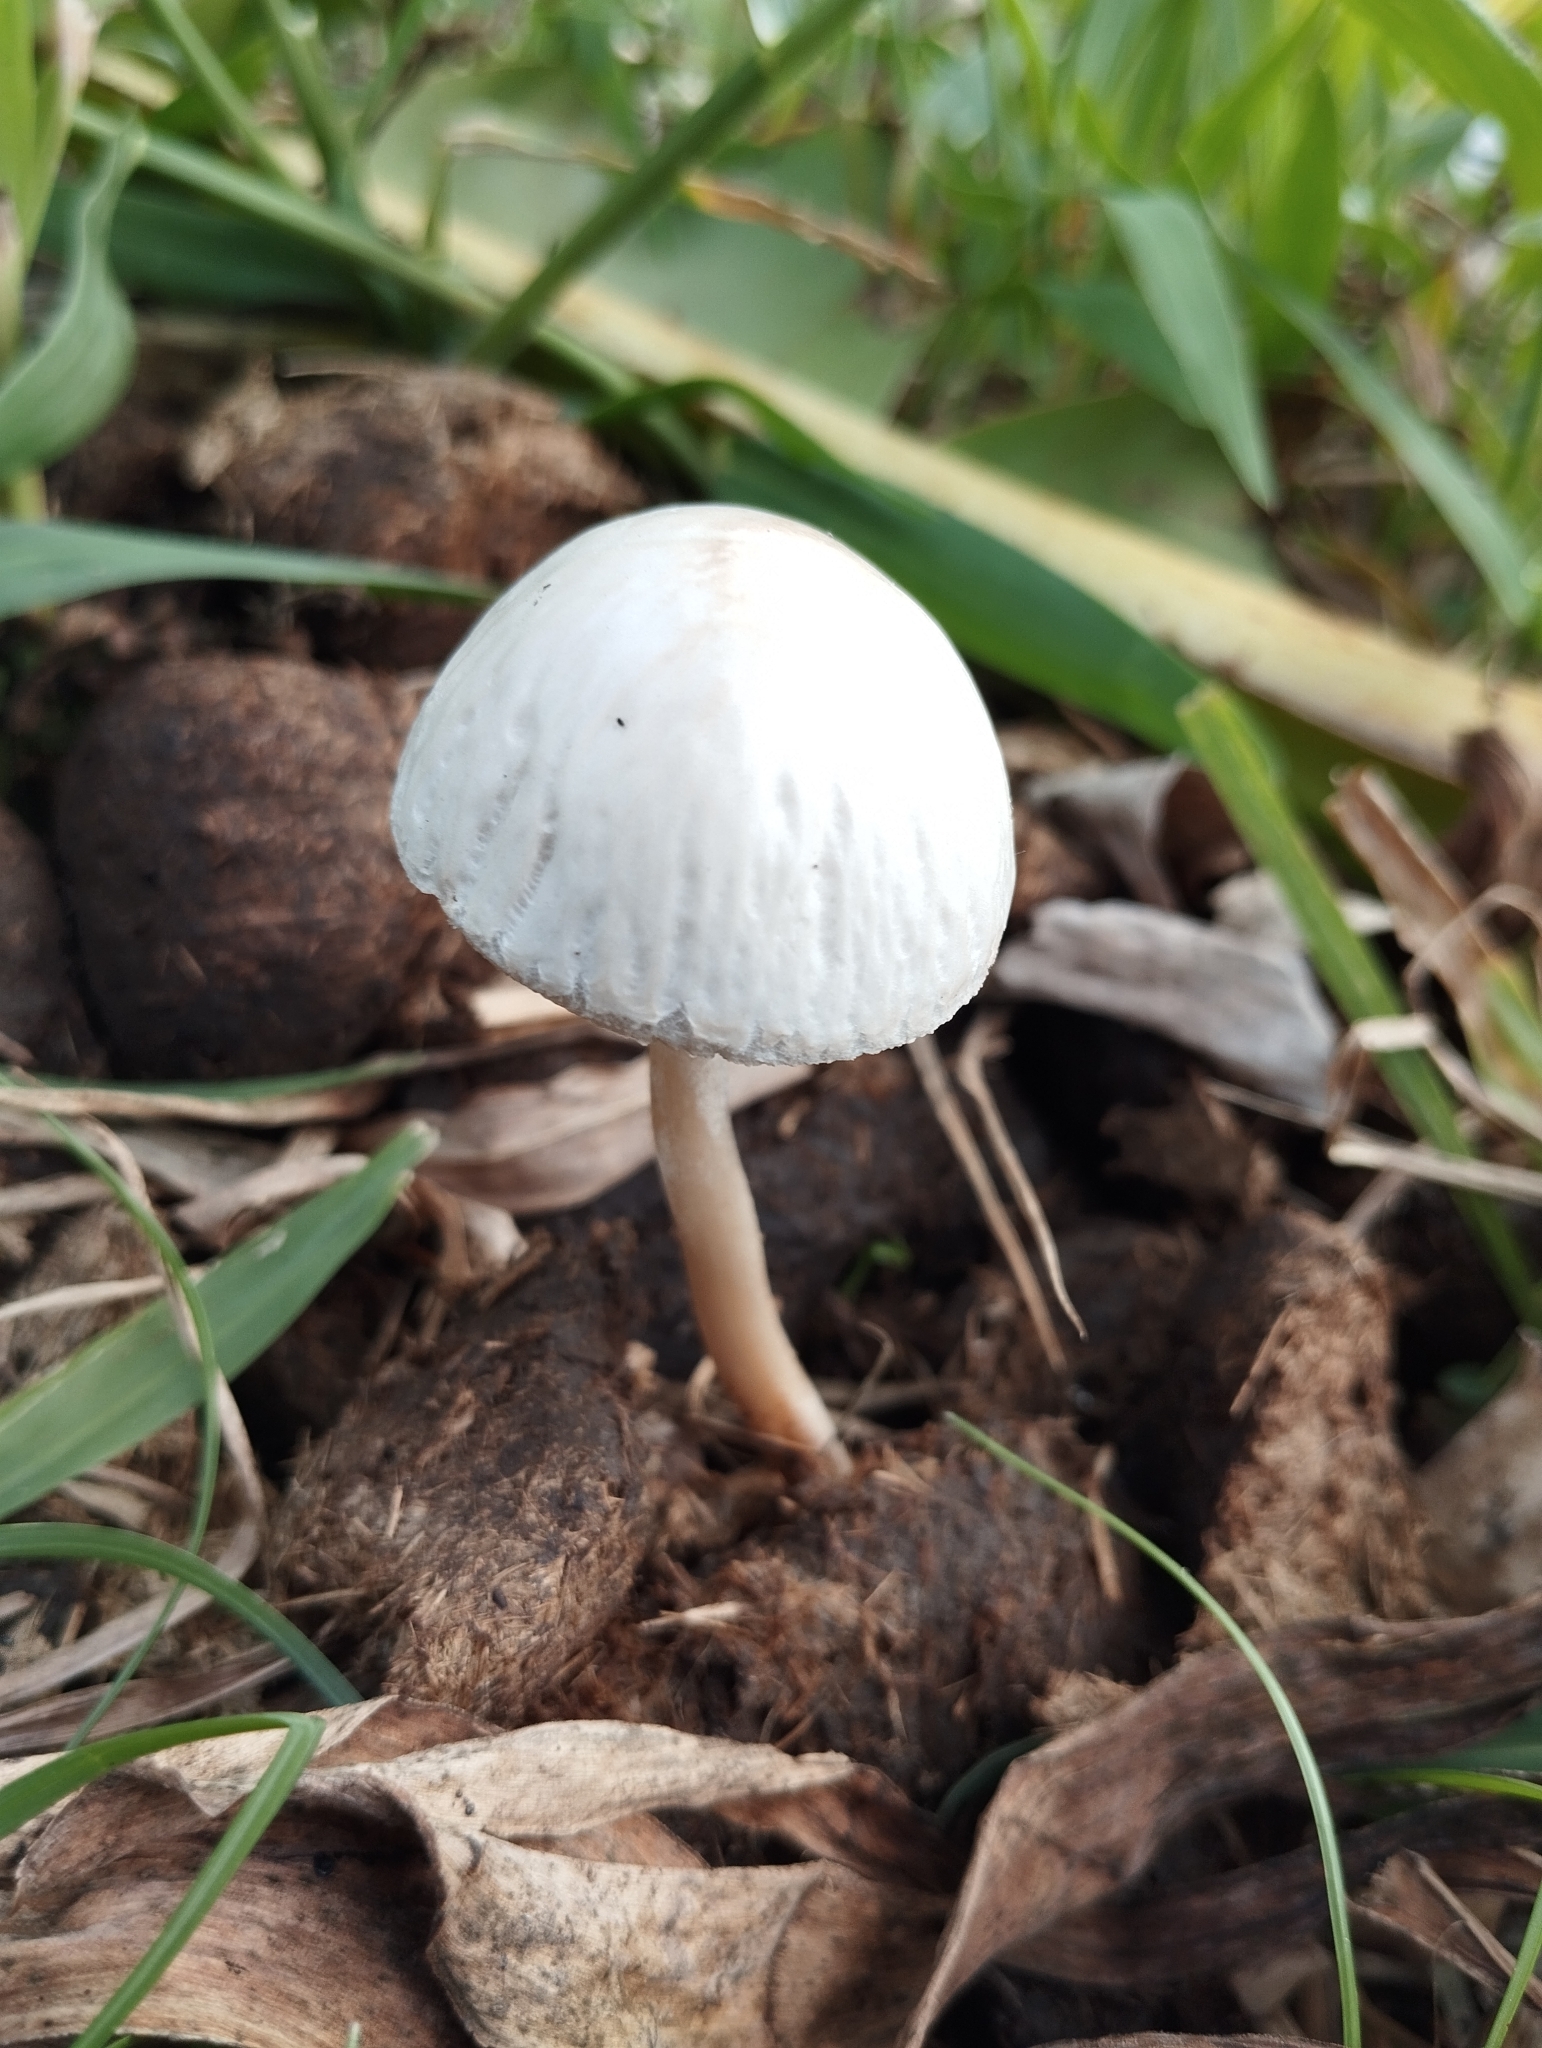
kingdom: Fungi
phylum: Basidiomycota
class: Agaricomycetes
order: Agaricales
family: Bolbitiaceae
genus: Panaeolus
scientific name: Panaeolus antillarum
